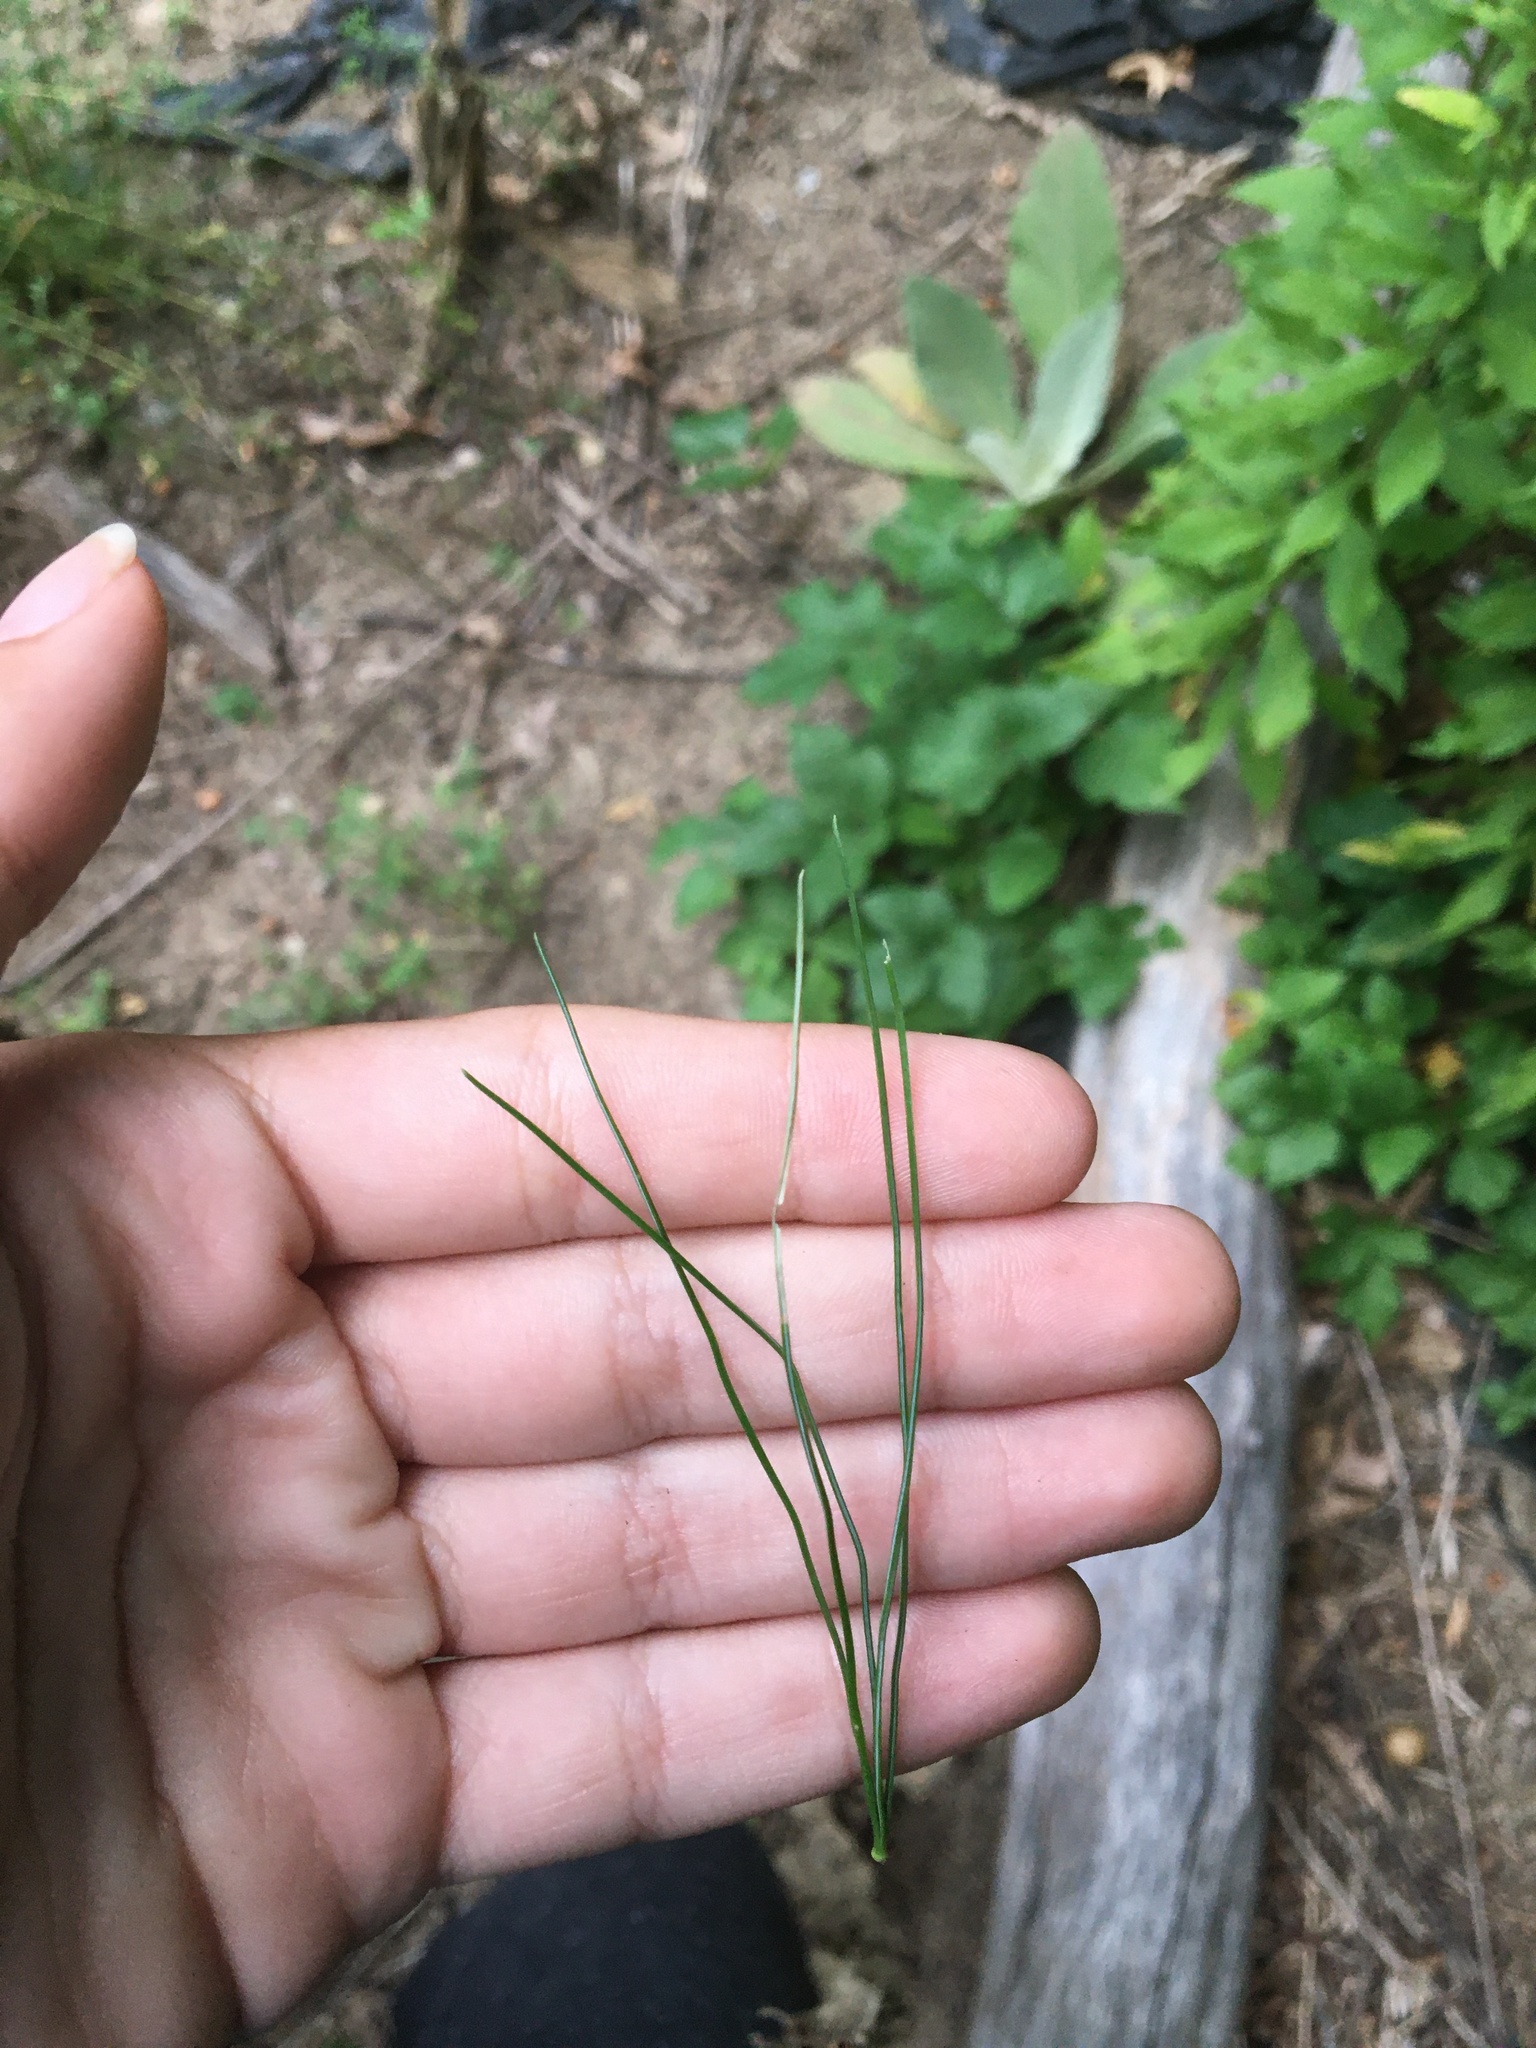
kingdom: Plantae
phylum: Tracheophyta
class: Pinopsida
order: Pinales
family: Pinaceae
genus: Pinus
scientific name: Pinus strobus
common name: Weymouth pine
